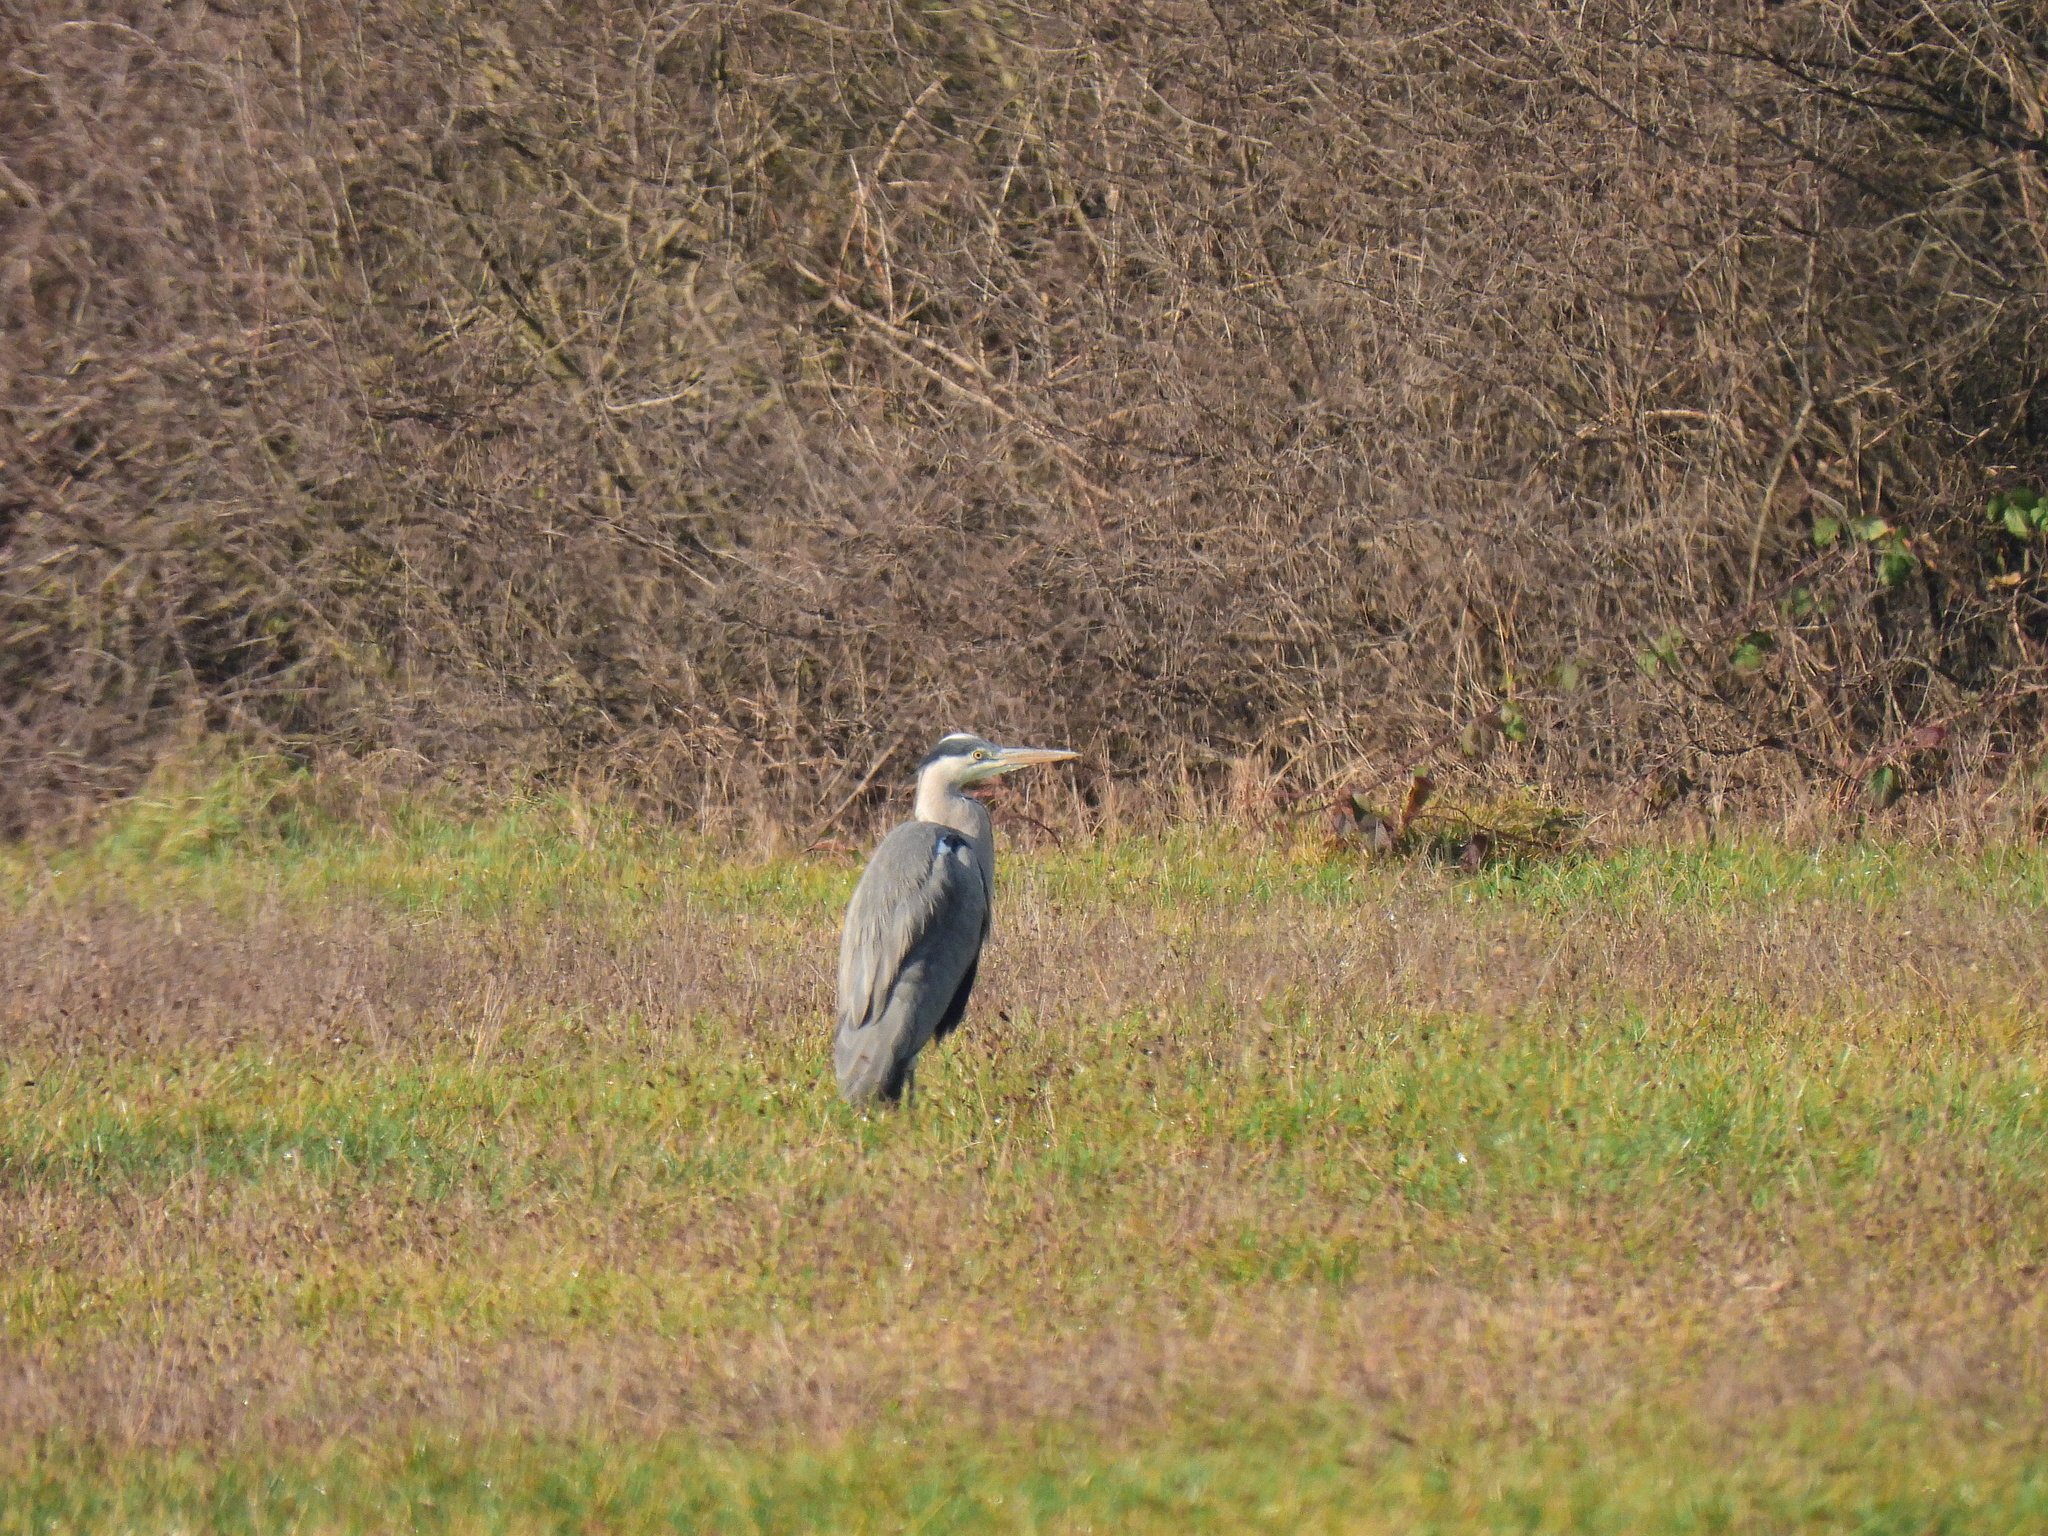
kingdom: Animalia
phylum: Chordata
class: Aves
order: Pelecaniformes
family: Ardeidae
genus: Ardea
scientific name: Ardea cinerea
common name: Grey heron
